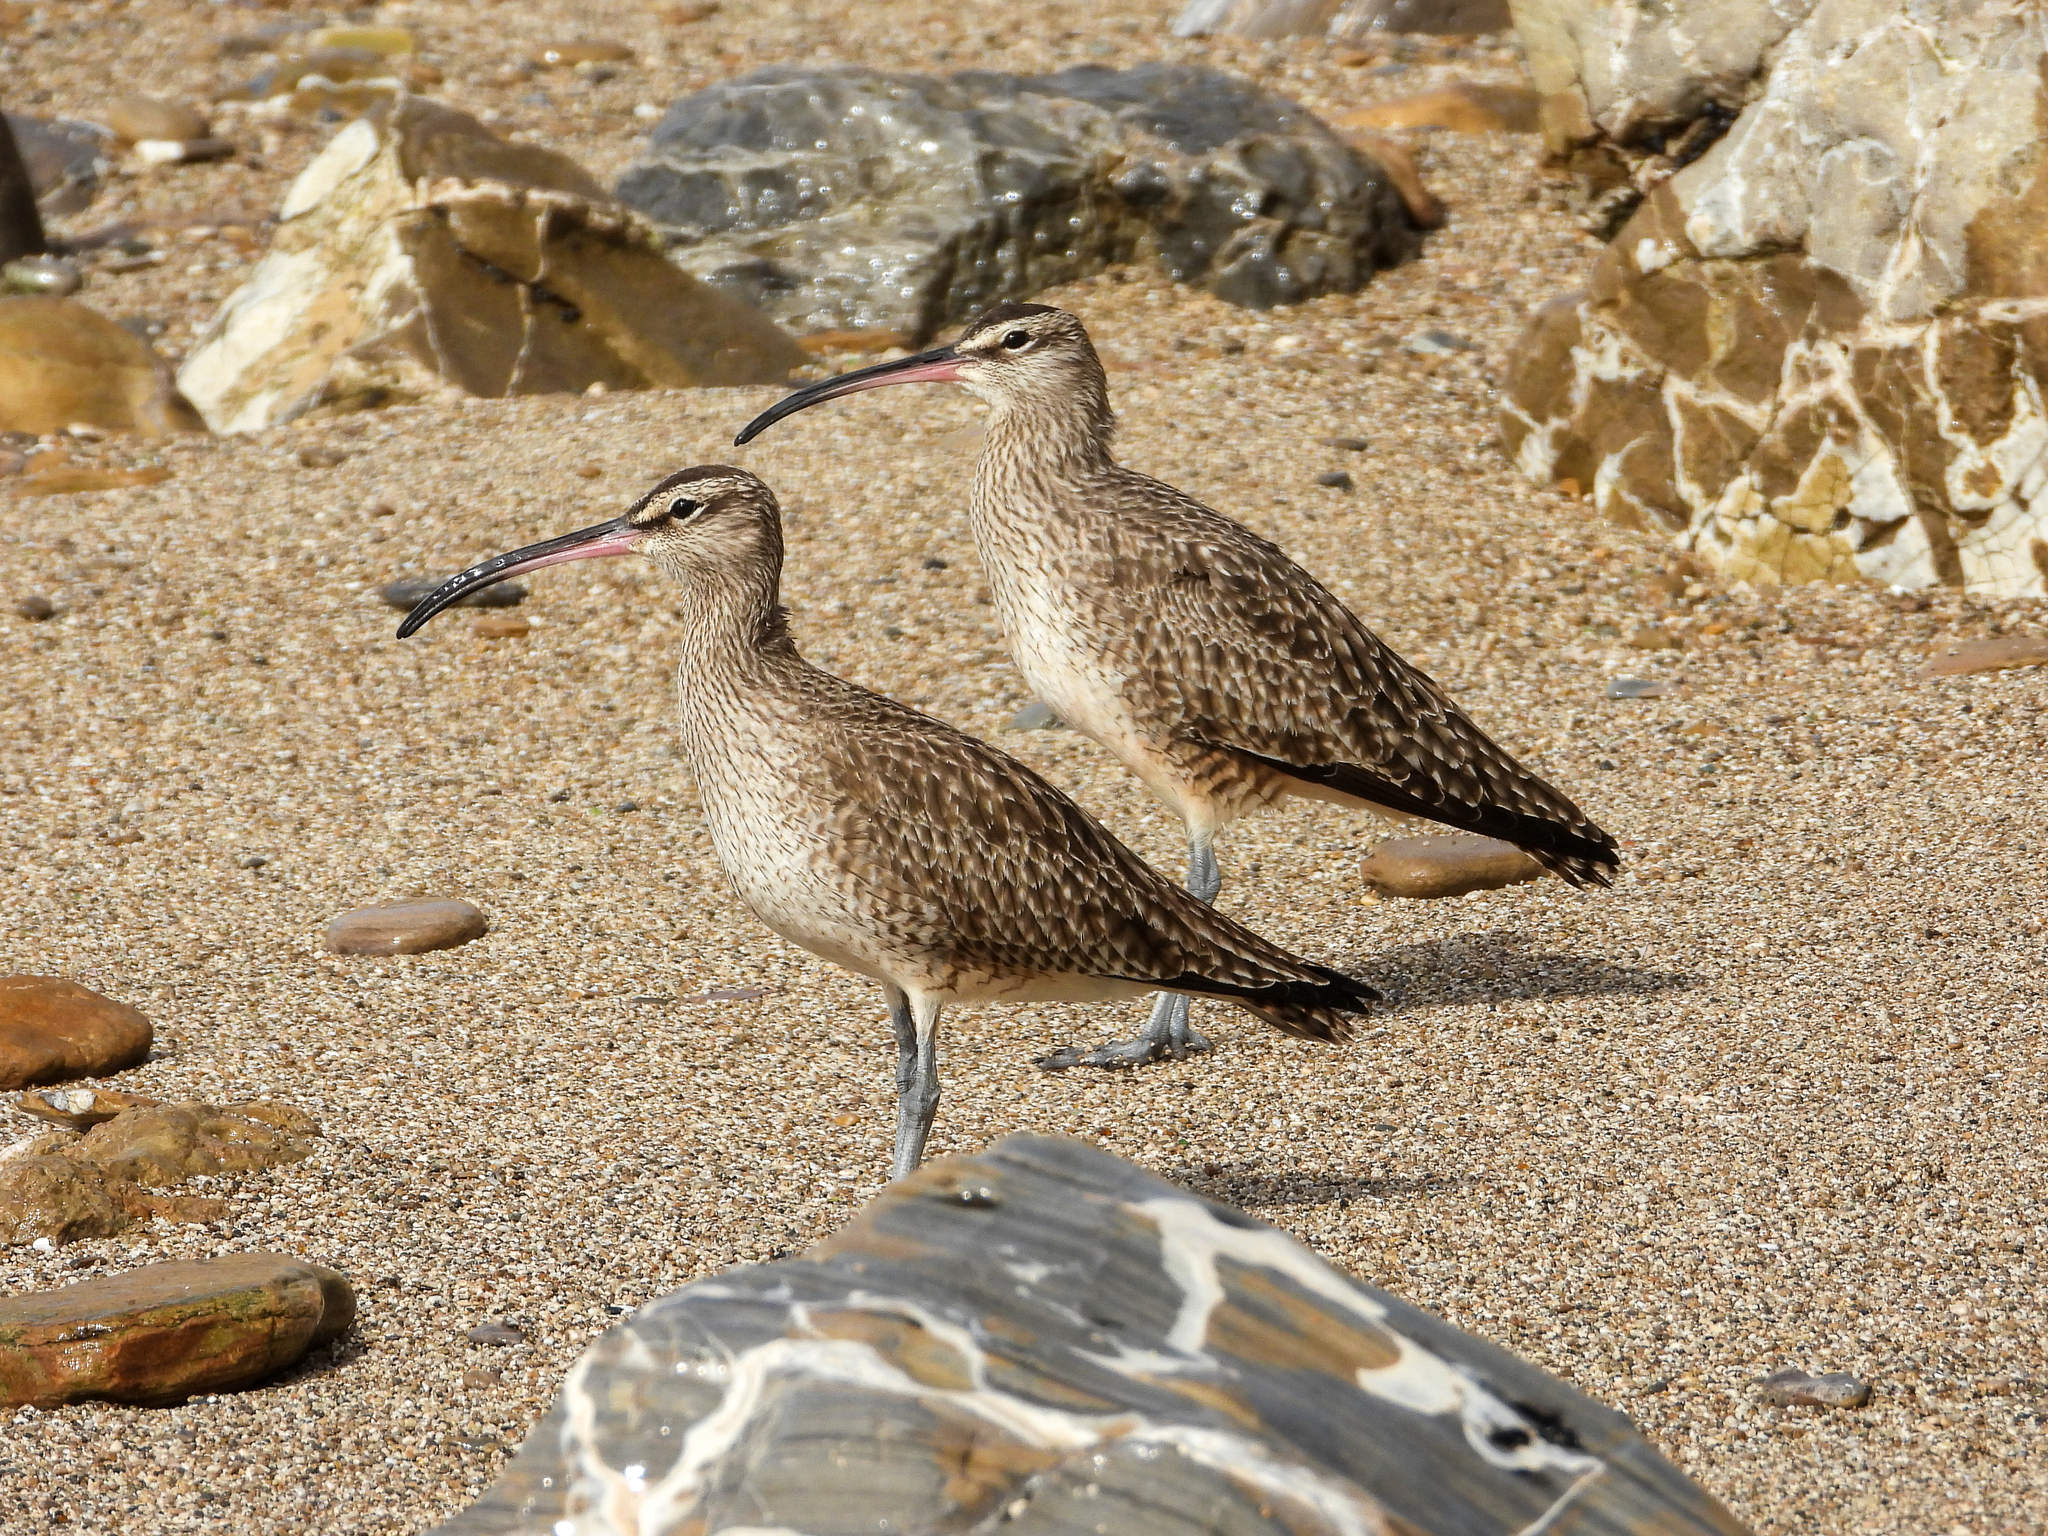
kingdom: Animalia
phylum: Chordata
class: Aves
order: Charadriiformes
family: Scolopacidae
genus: Numenius
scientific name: Numenius phaeopus
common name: Whimbrel
